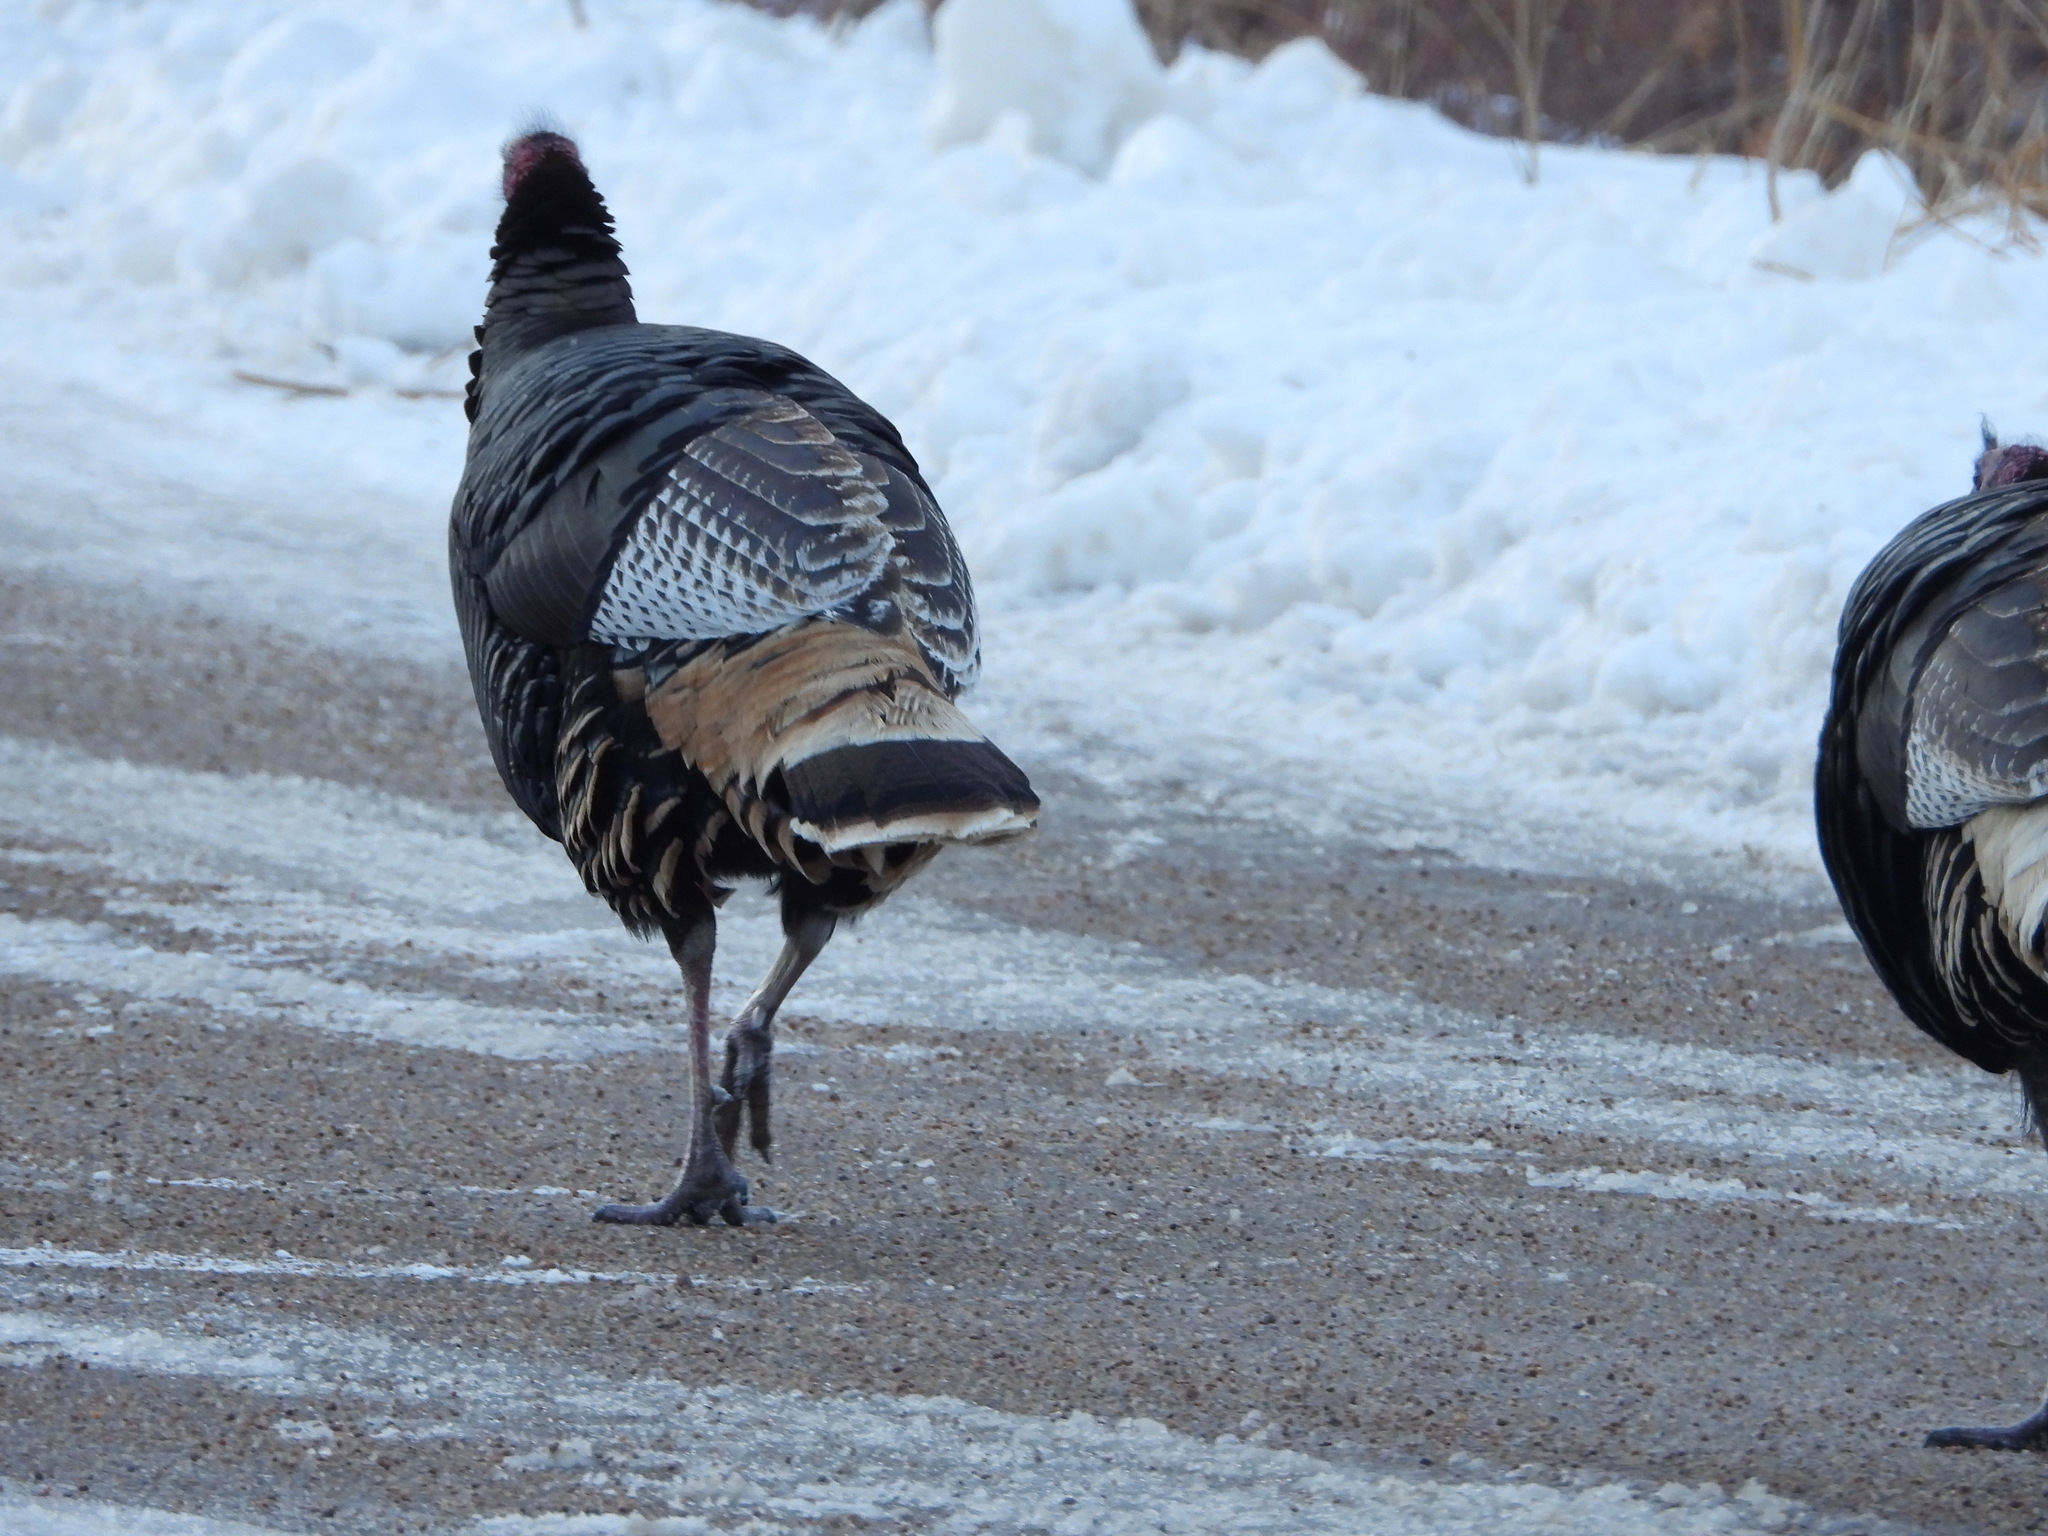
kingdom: Animalia
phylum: Chordata
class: Aves
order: Galliformes
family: Phasianidae
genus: Meleagris
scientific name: Meleagris gallopavo
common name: Wild turkey
